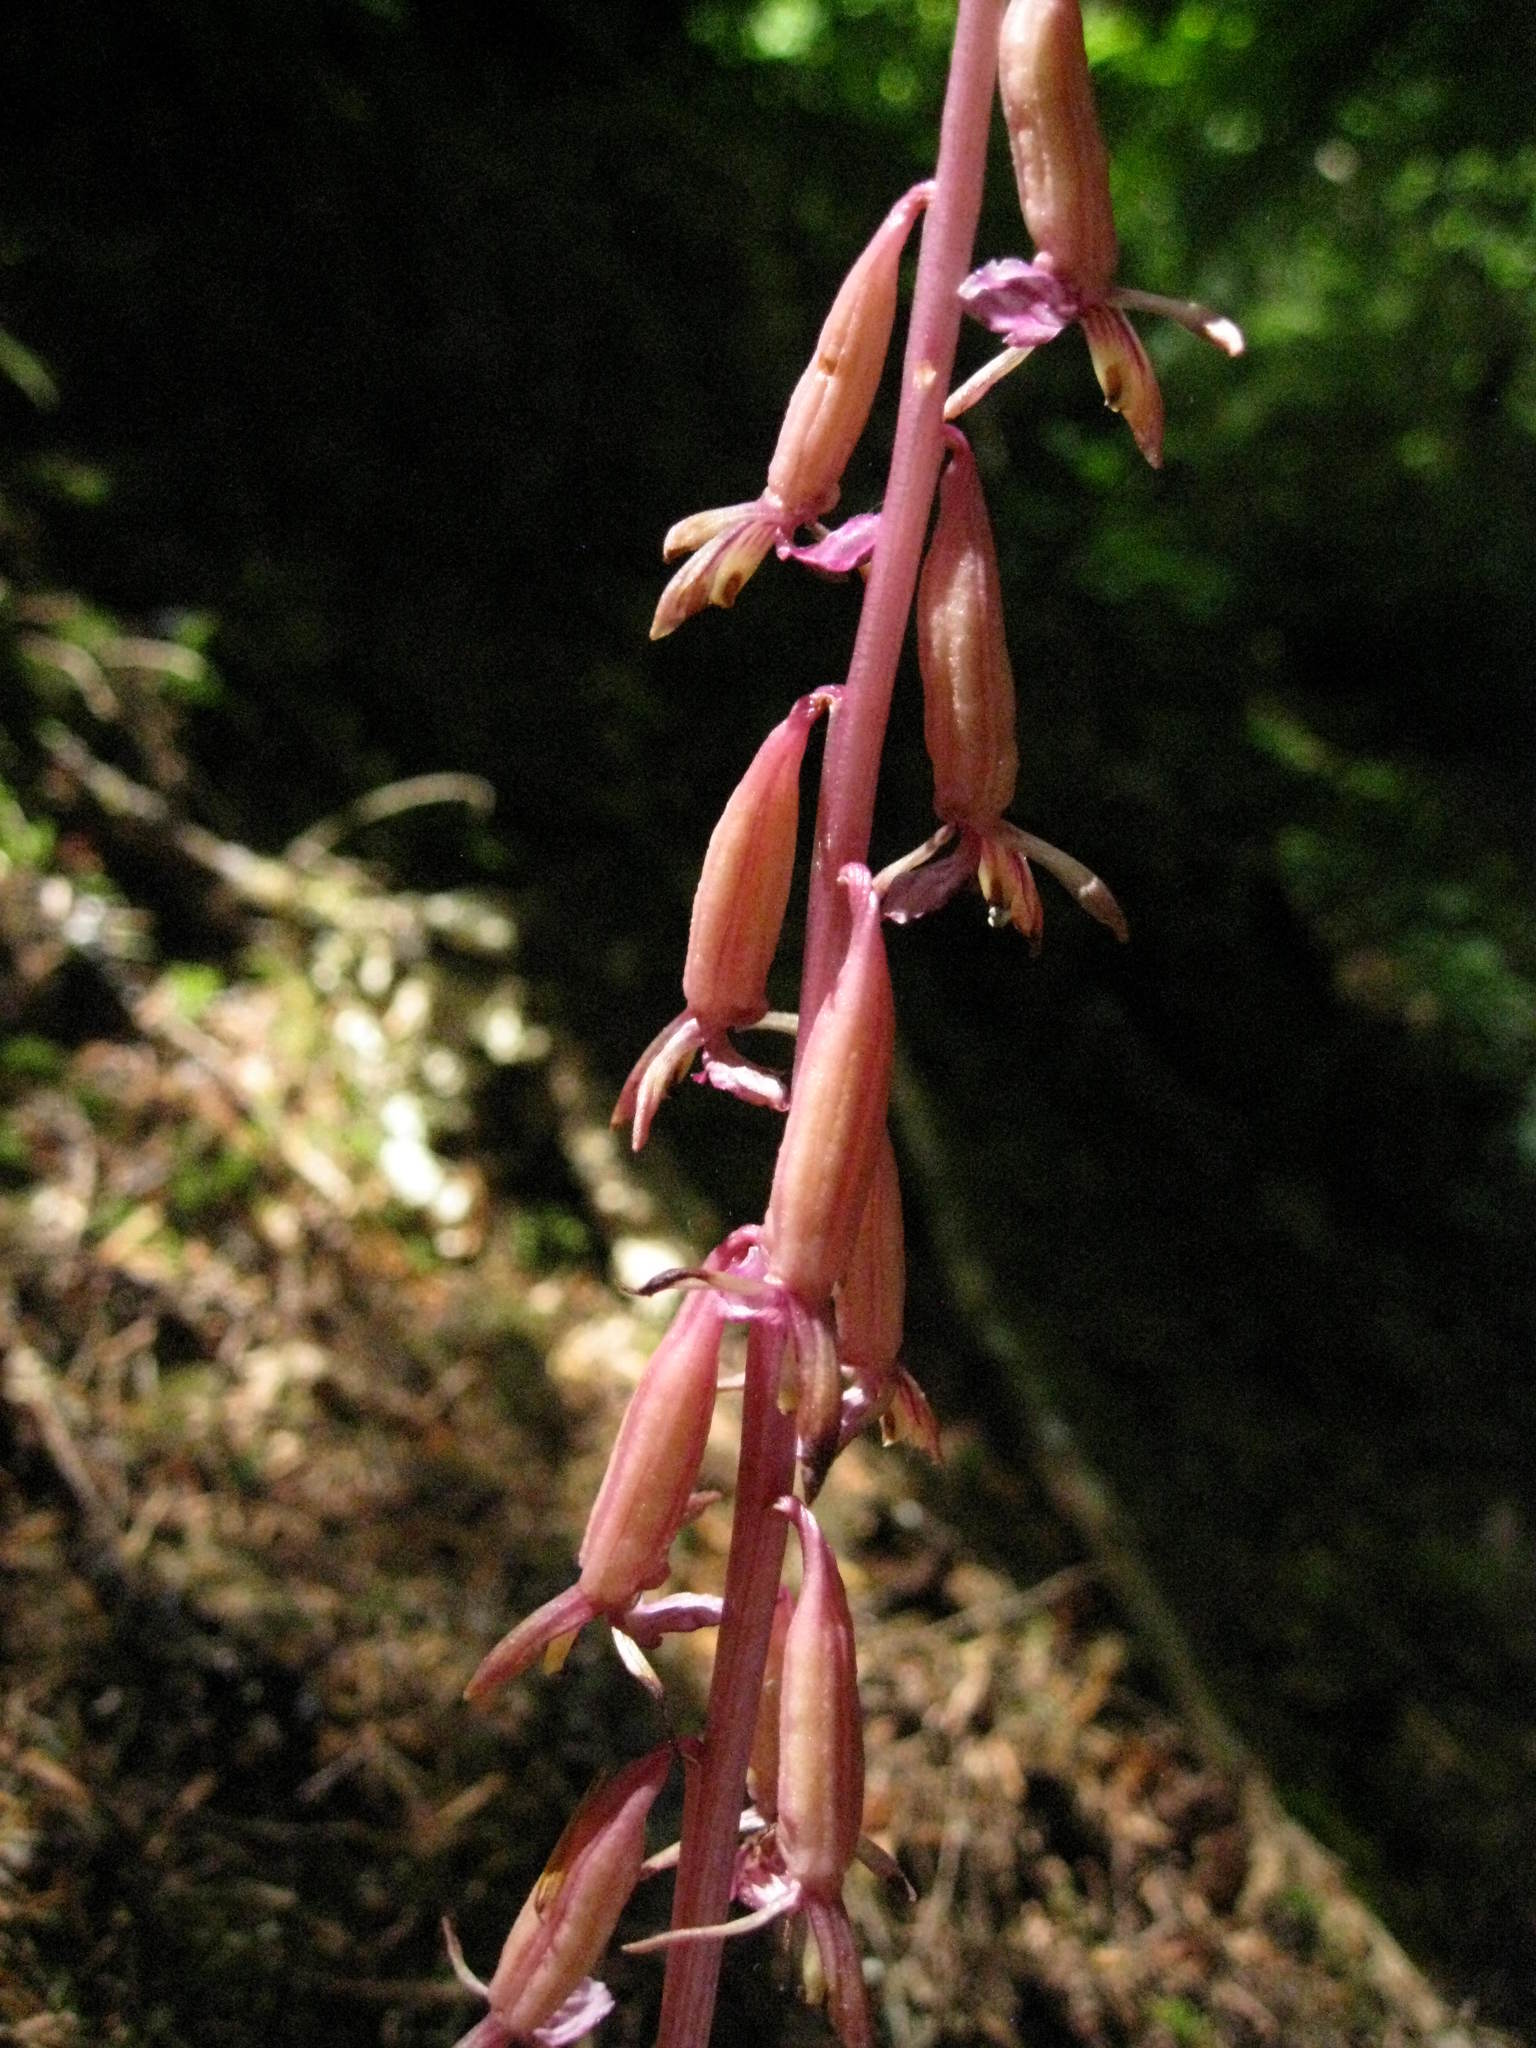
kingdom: Plantae
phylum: Tracheophyta
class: Liliopsida
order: Asparagales
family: Orchidaceae
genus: Corallorhiza
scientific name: Corallorhiza mertensiana
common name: Pacific coralroot
